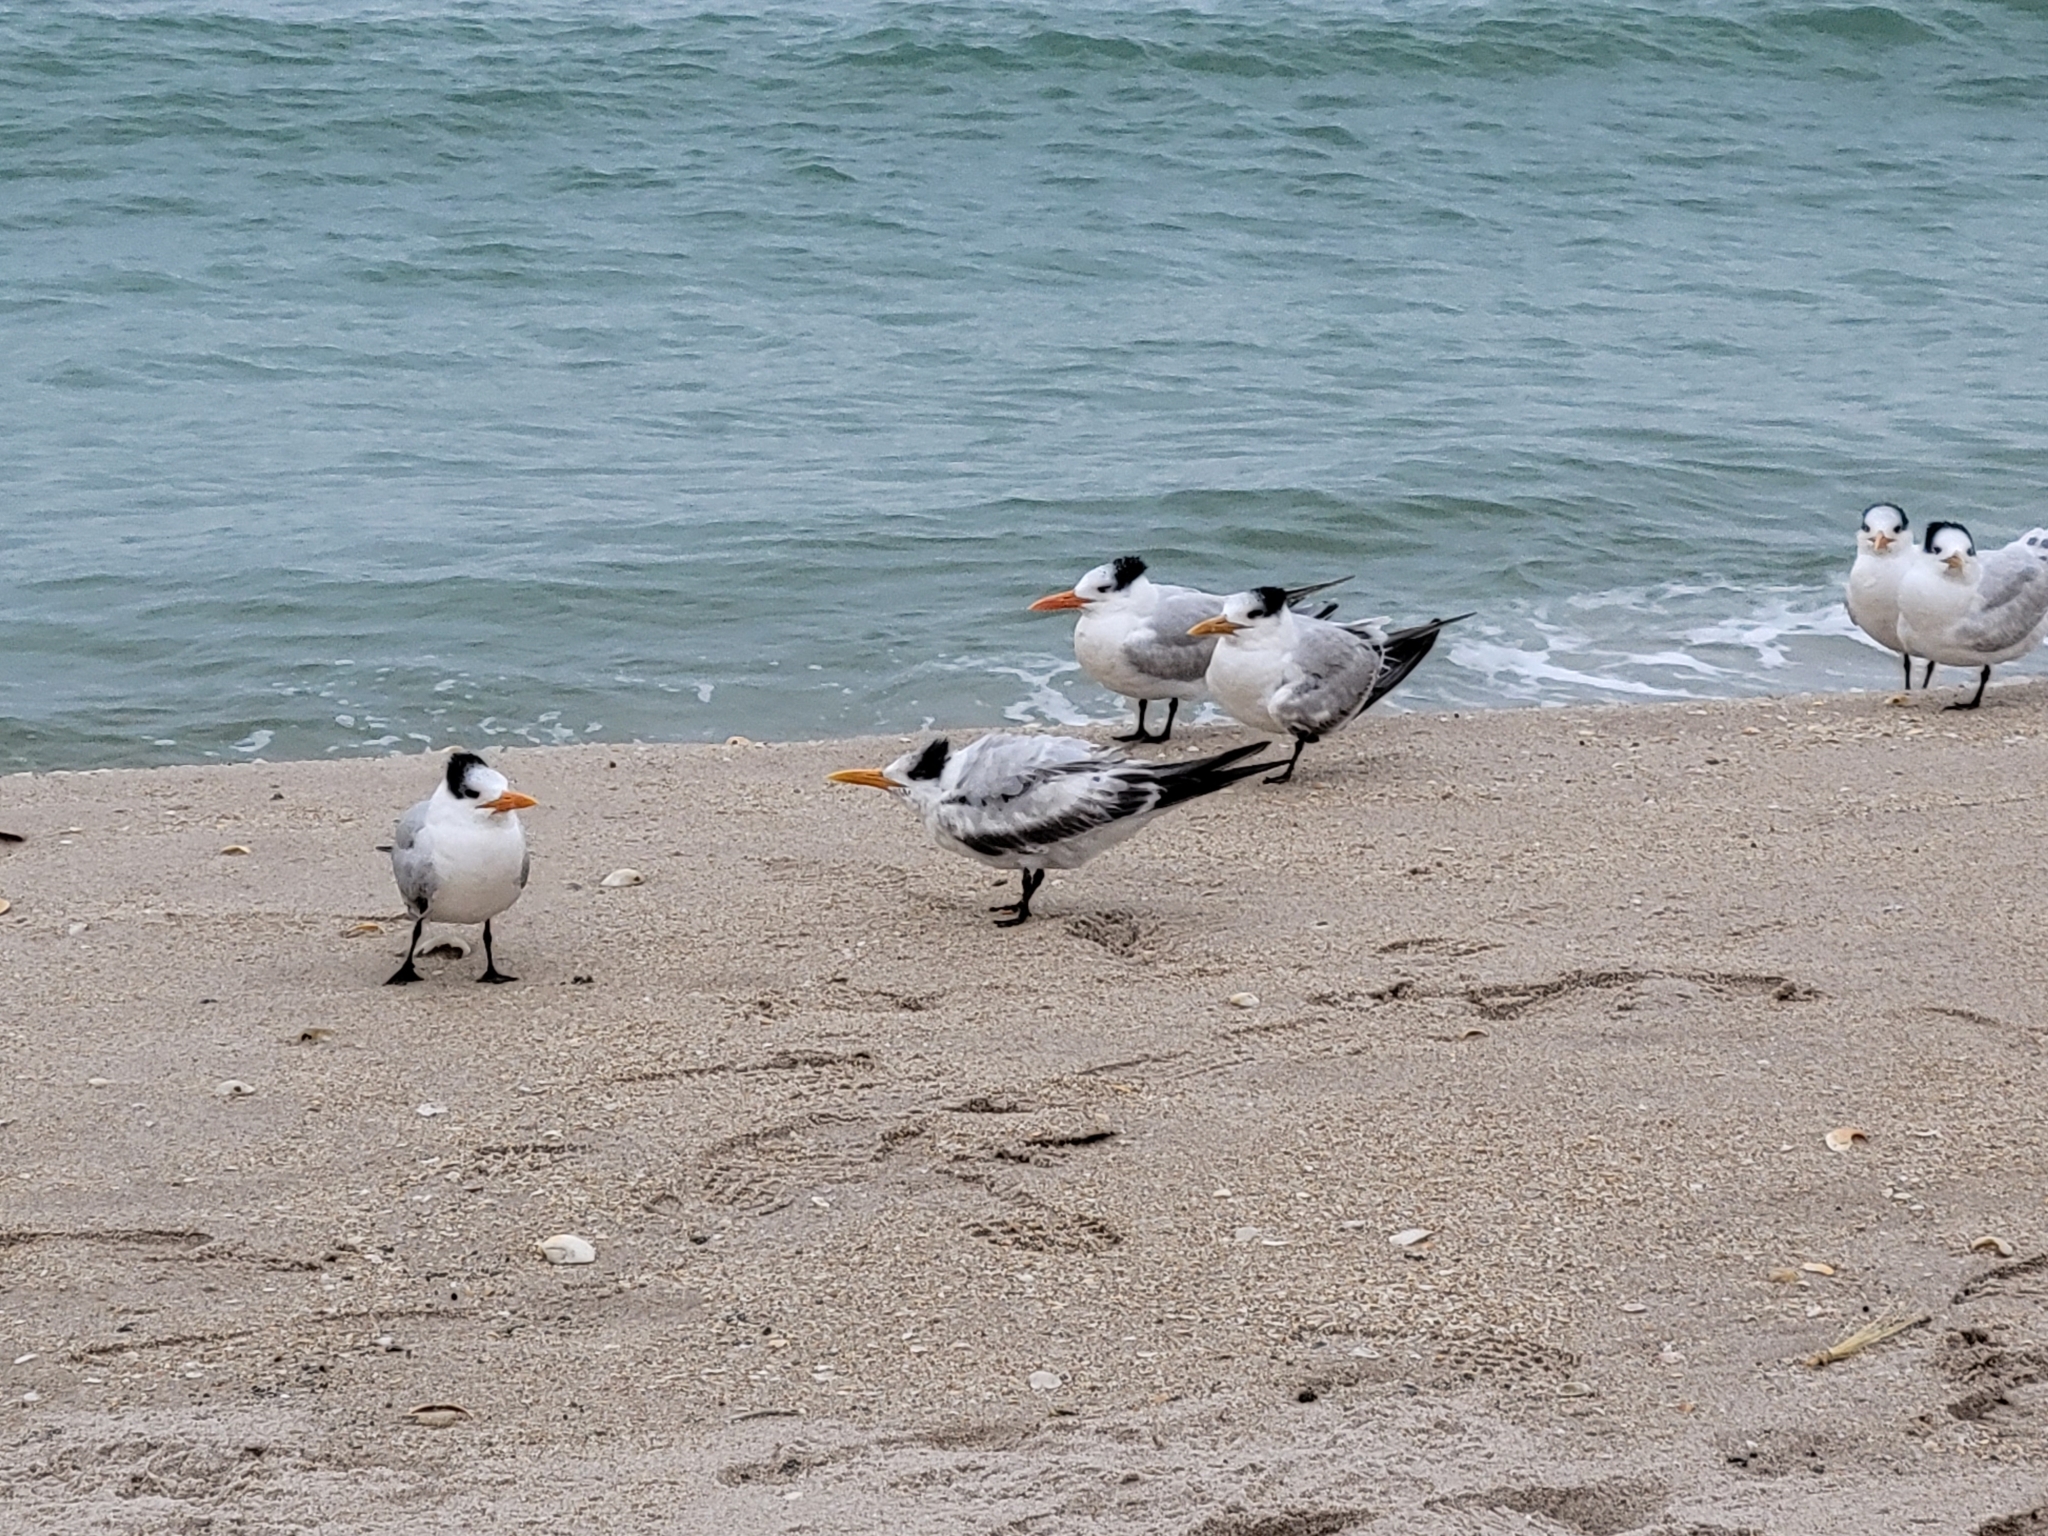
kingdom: Animalia
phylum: Chordata
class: Aves
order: Charadriiformes
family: Laridae
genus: Thalasseus
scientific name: Thalasseus maximus
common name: Royal tern
